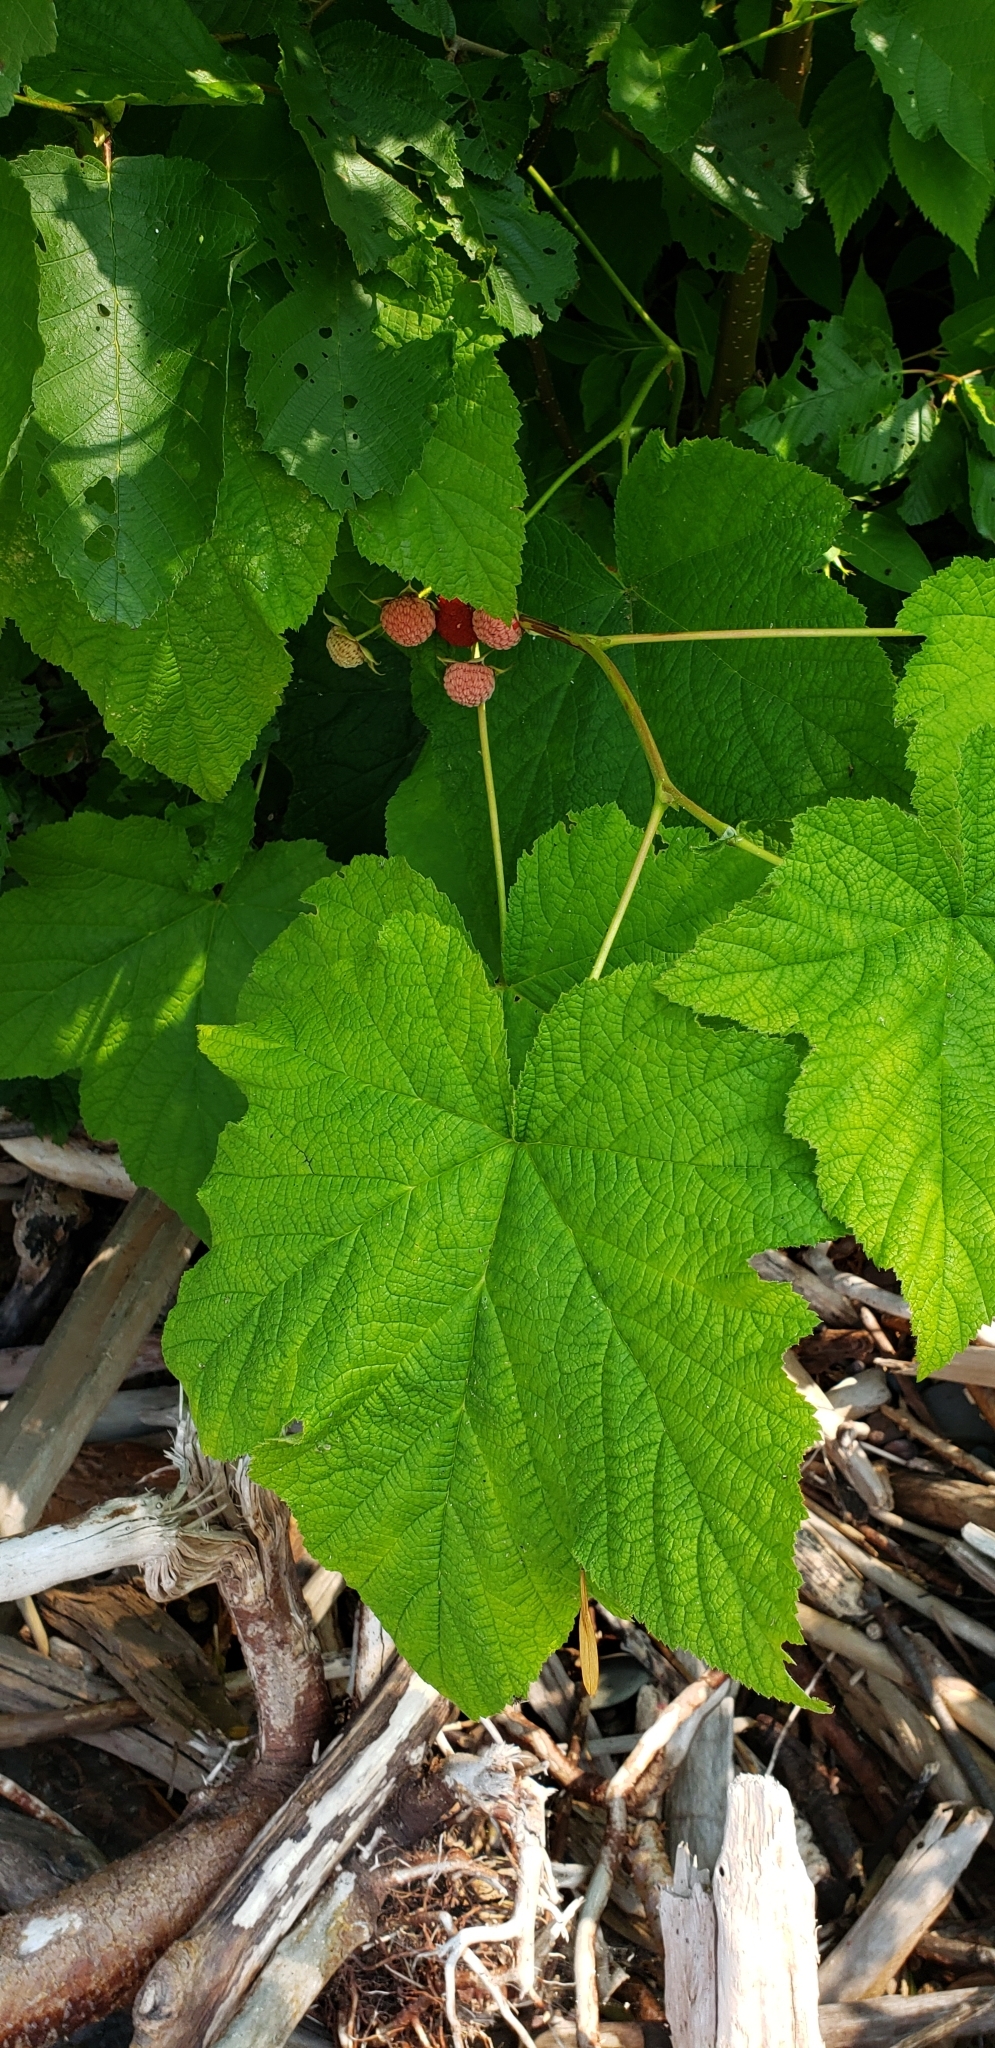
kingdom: Plantae
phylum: Tracheophyta
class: Magnoliopsida
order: Rosales
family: Rosaceae
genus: Rubus
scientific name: Rubus parviflorus
